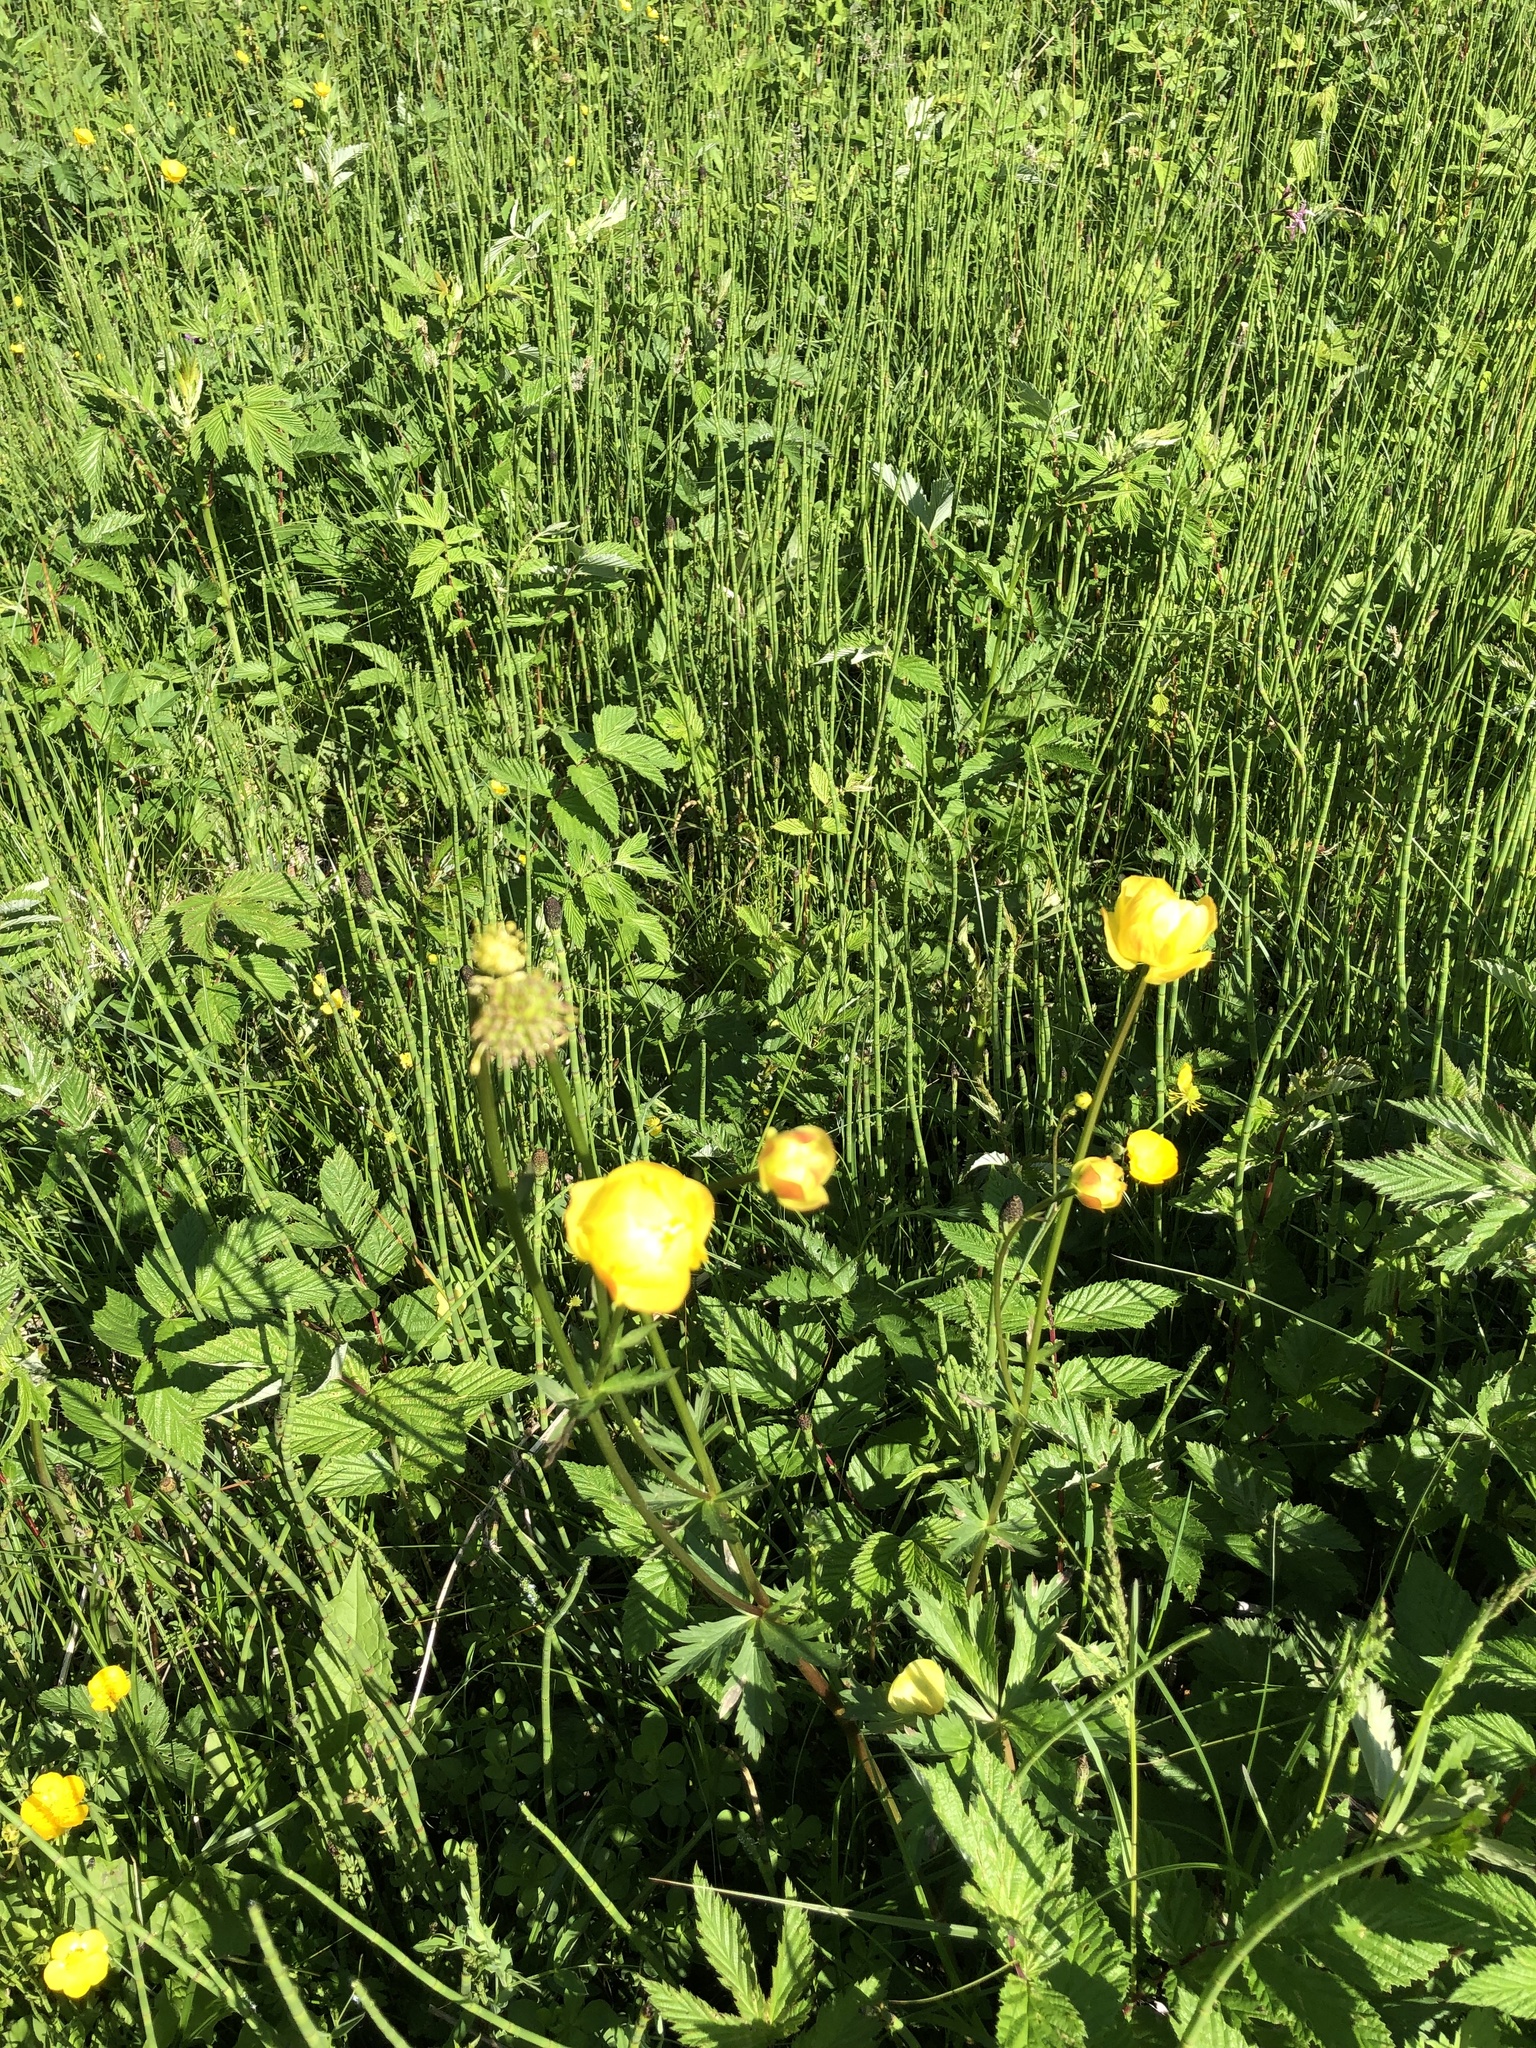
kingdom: Plantae
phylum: Tracheophyta
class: Magnoliopsida
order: Ranunculales
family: Ranunculaceae
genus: Trollius
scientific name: Trollius europaeus
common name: European globeflower
